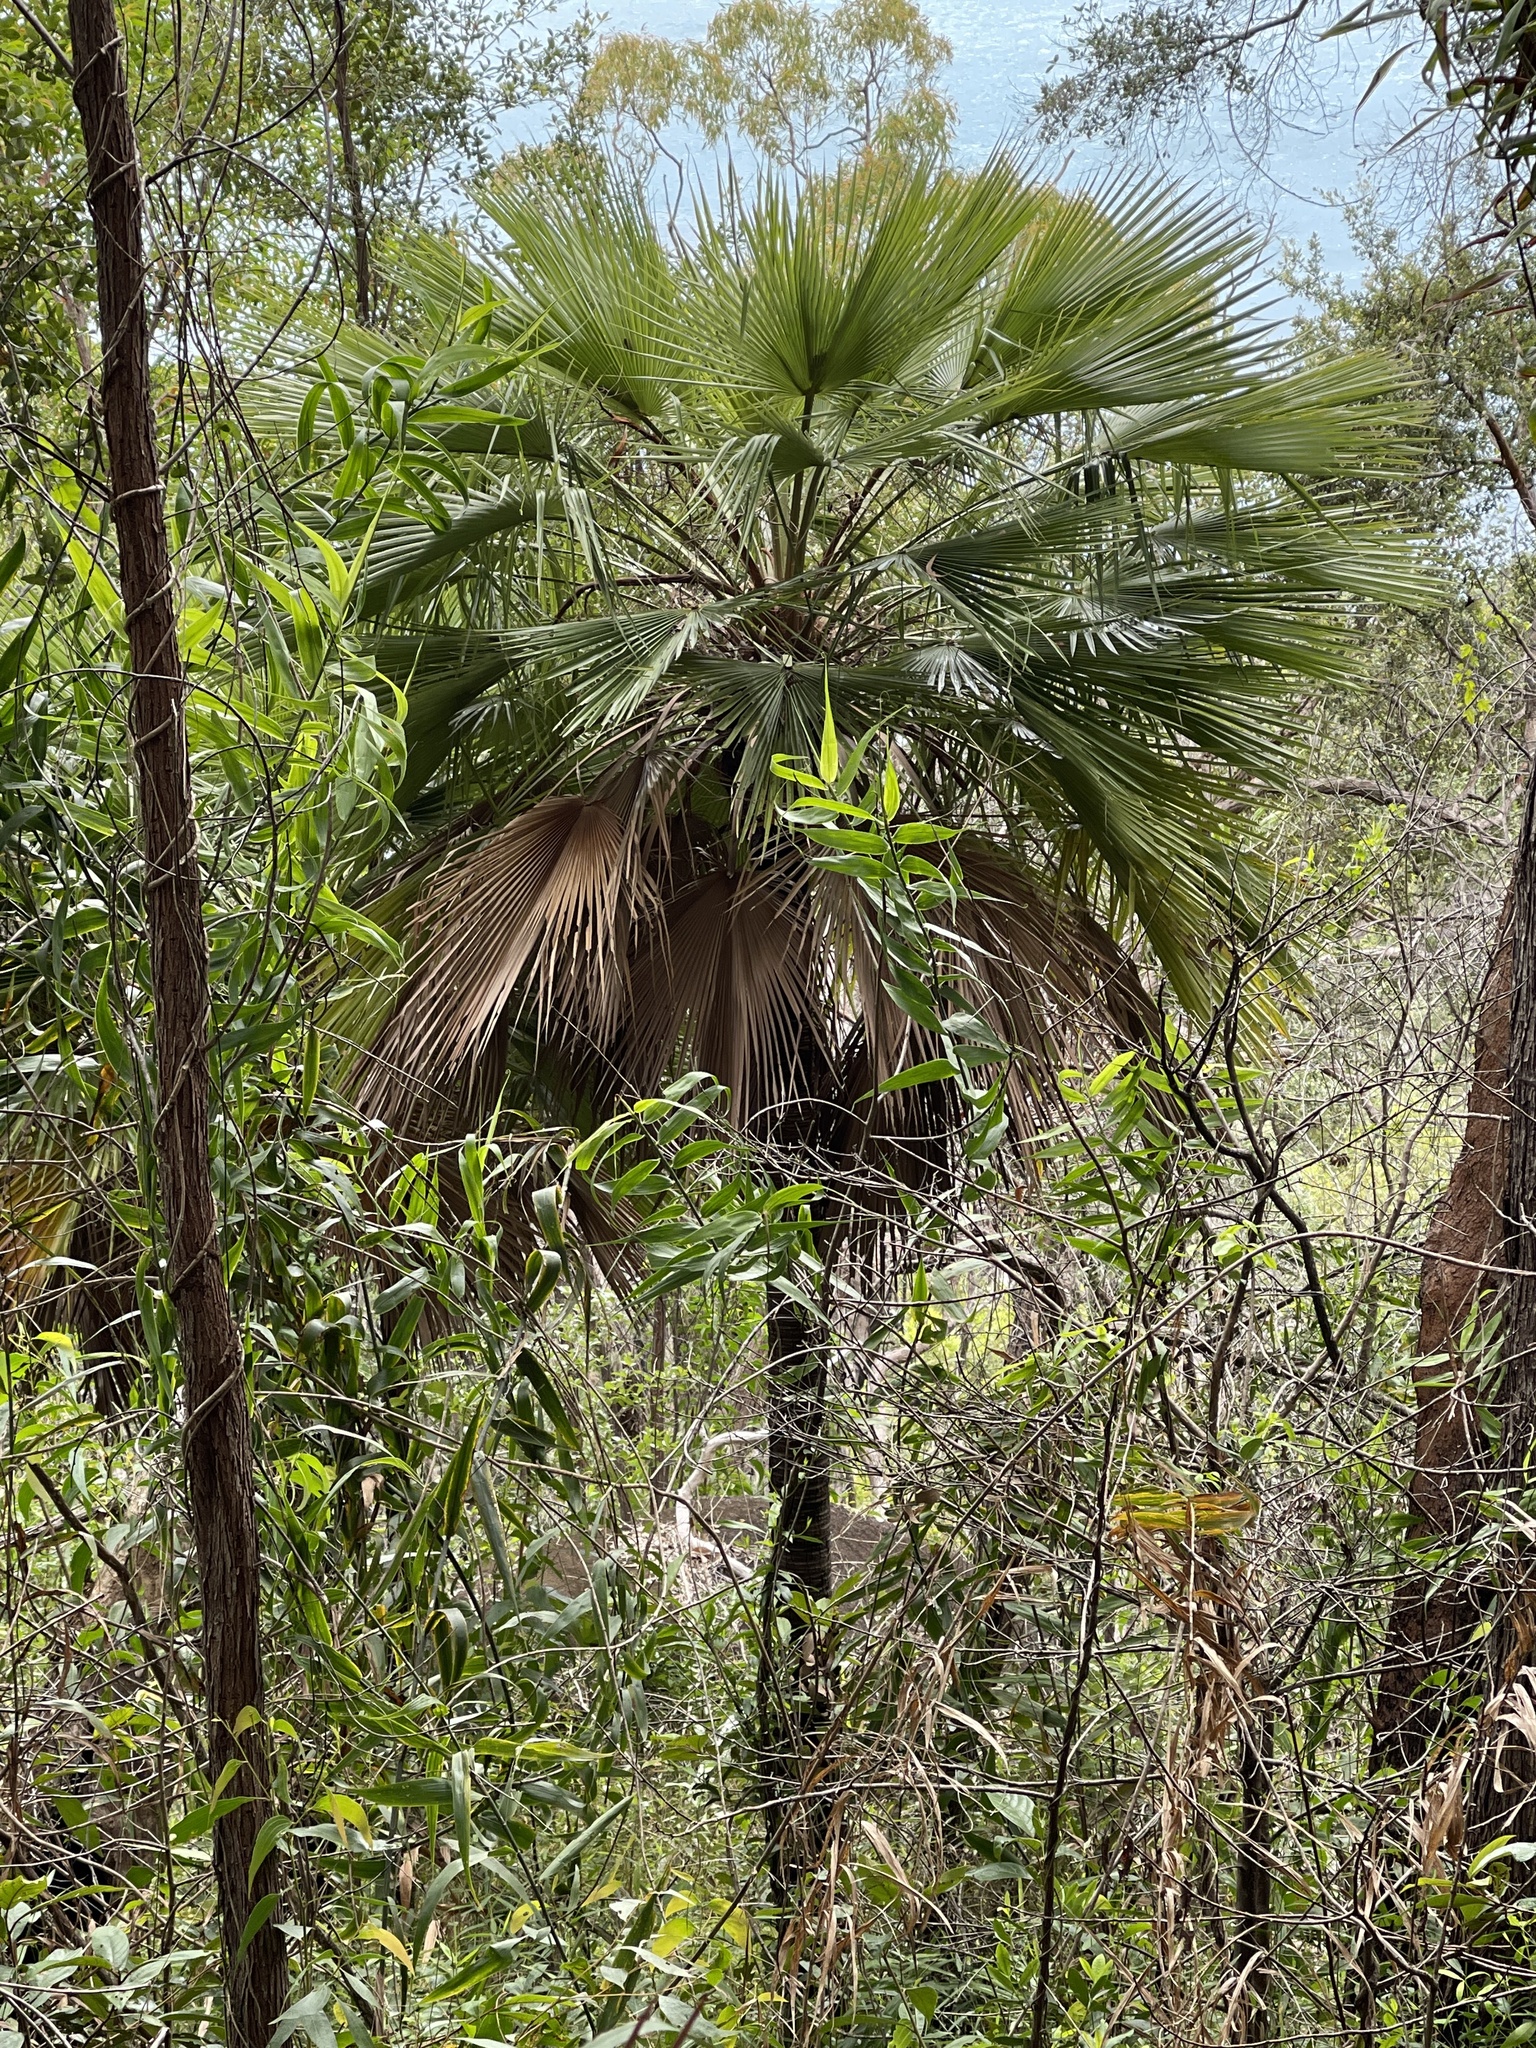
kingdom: Plantae
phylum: Tracheophyta
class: Liliopsida
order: Arecales
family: Arecaceae
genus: Livistona
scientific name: Livistona muelleri
